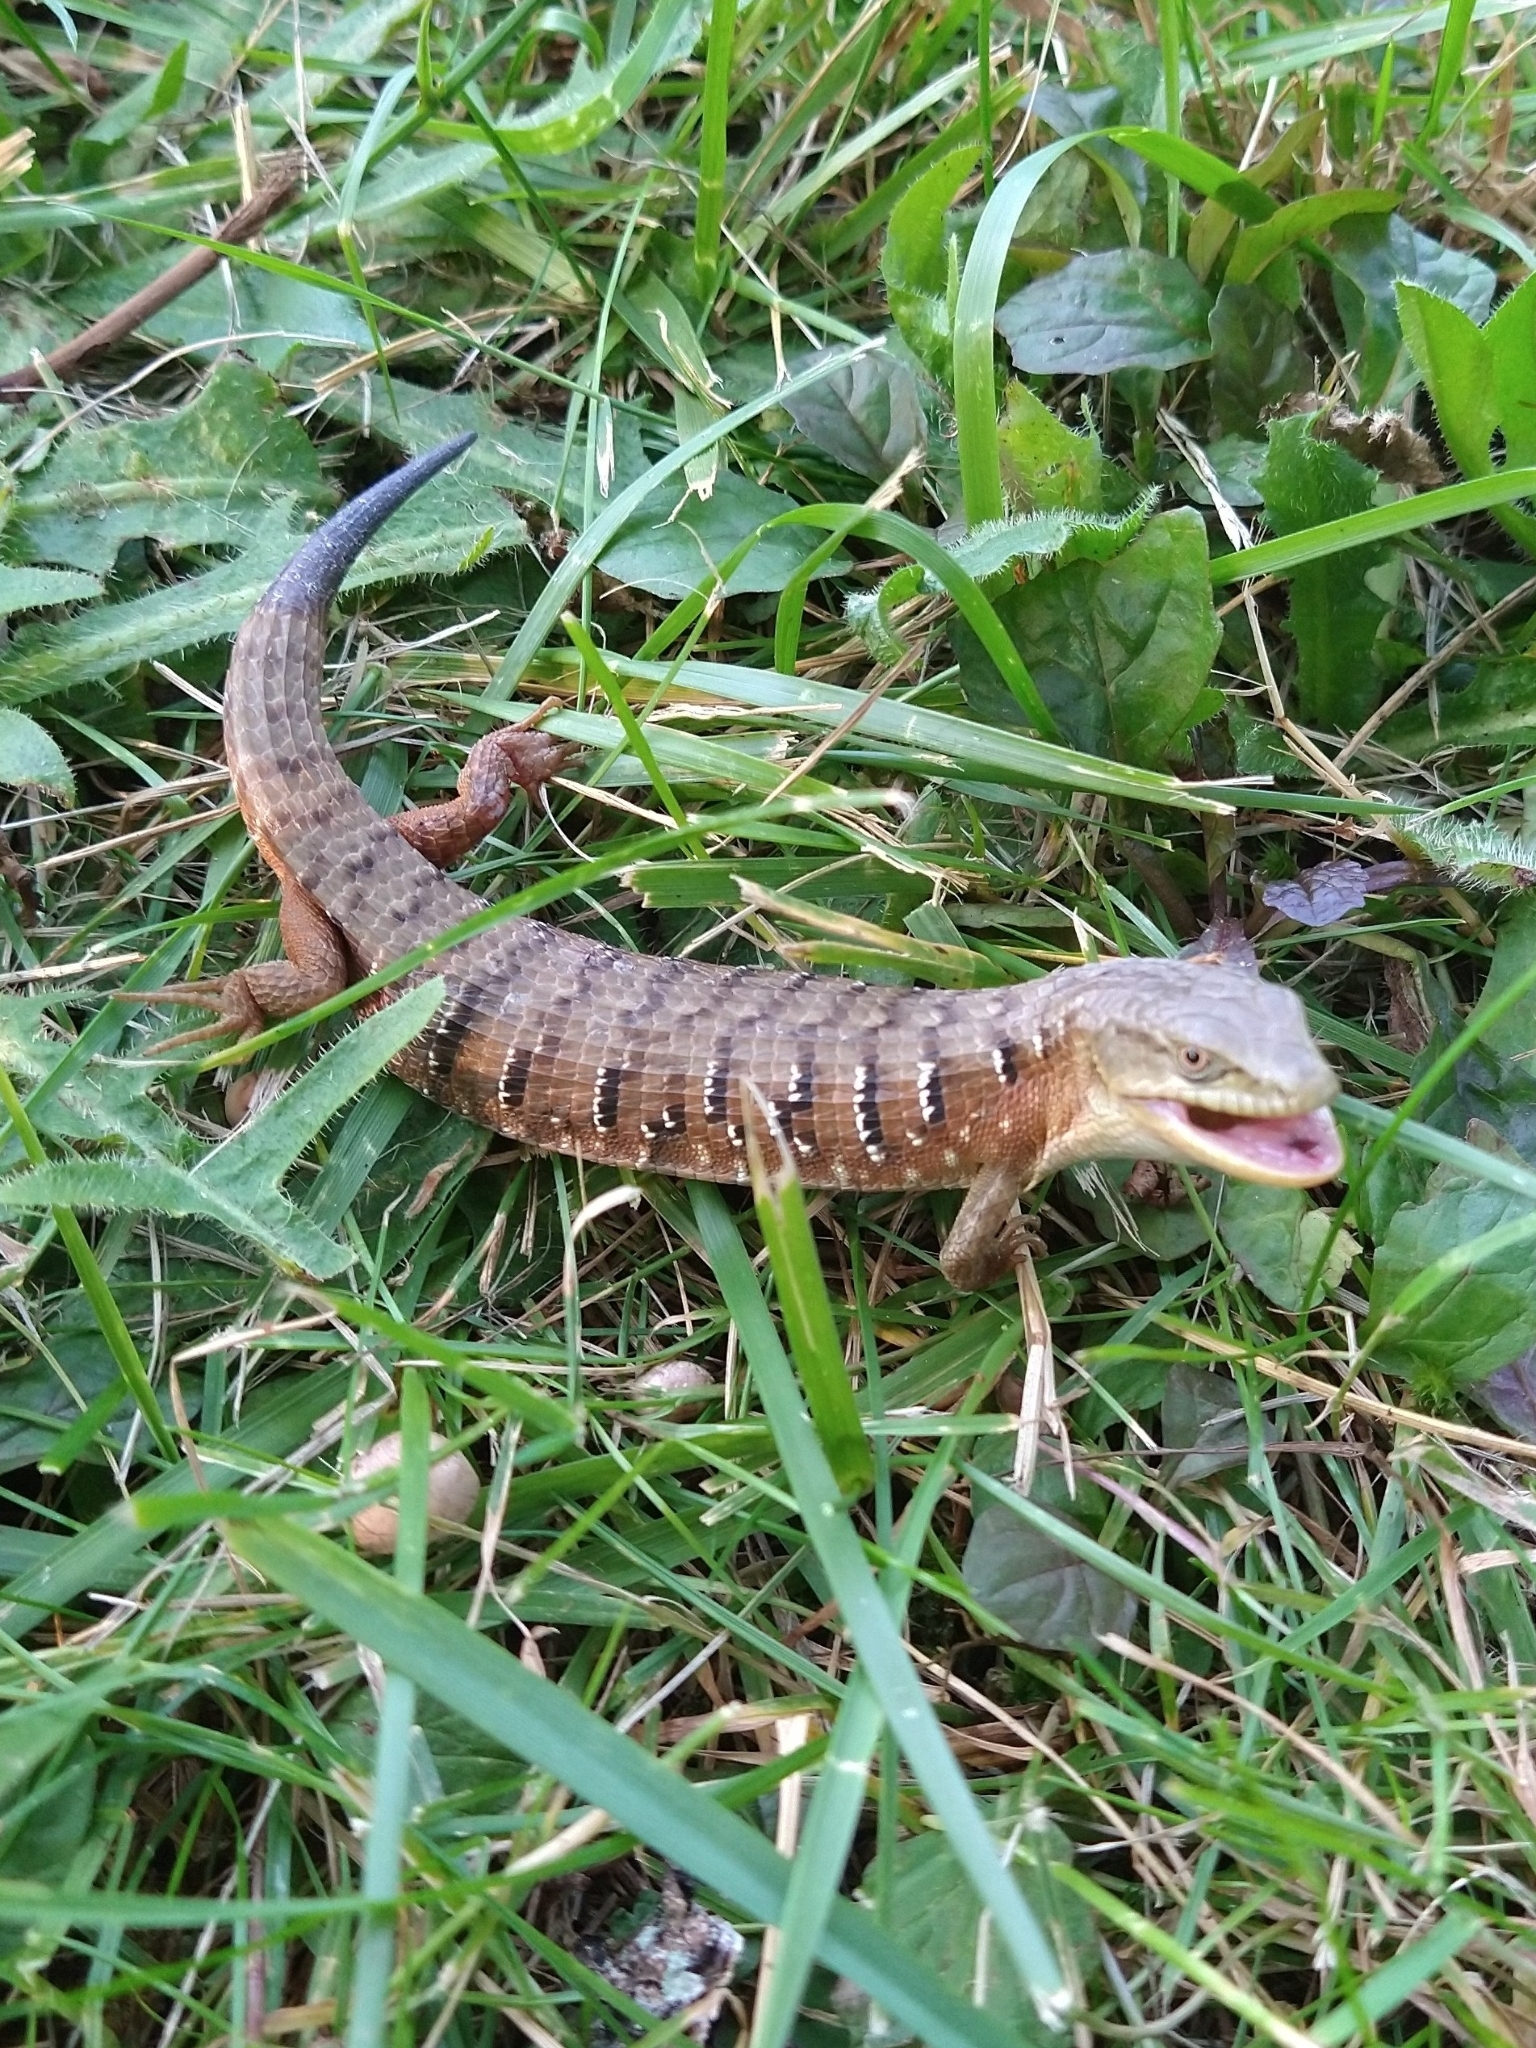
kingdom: Animalia
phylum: Chordata
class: Squamata
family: Anguidae
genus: Elgaria
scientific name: Elgaria multicarinata
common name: Southern alligator lizard
